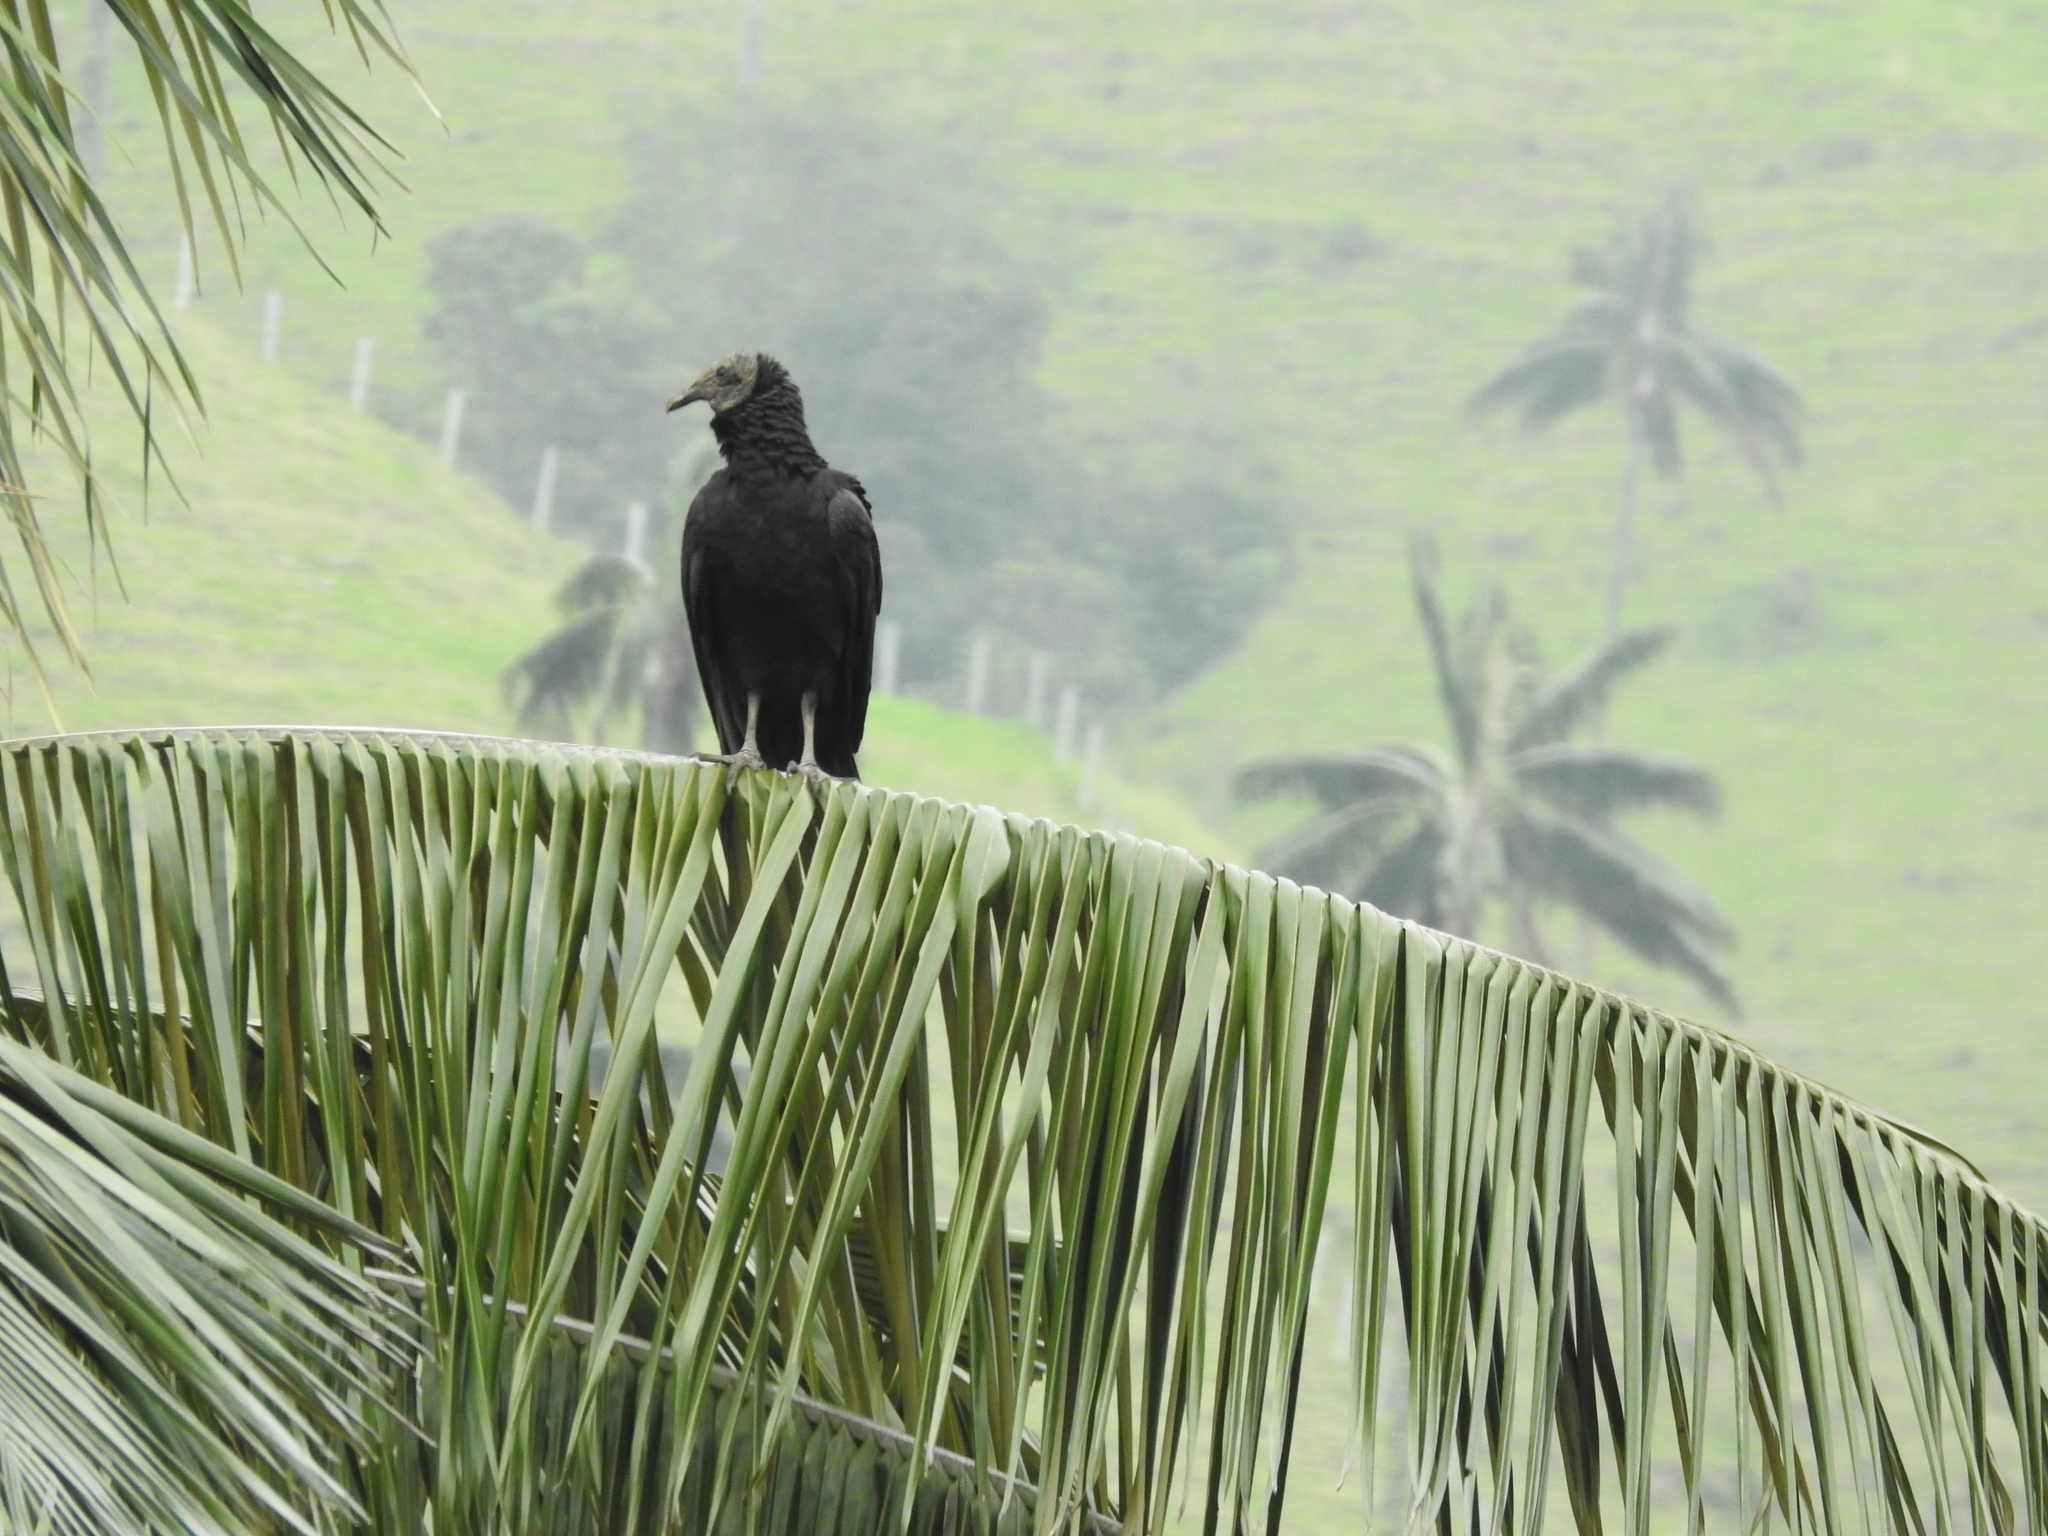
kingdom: Animalia
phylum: Chordata
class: Aves
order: Accipitriformes
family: Cathartidae
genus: Coragyps
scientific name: Coragyps atratus
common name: Black vulture
